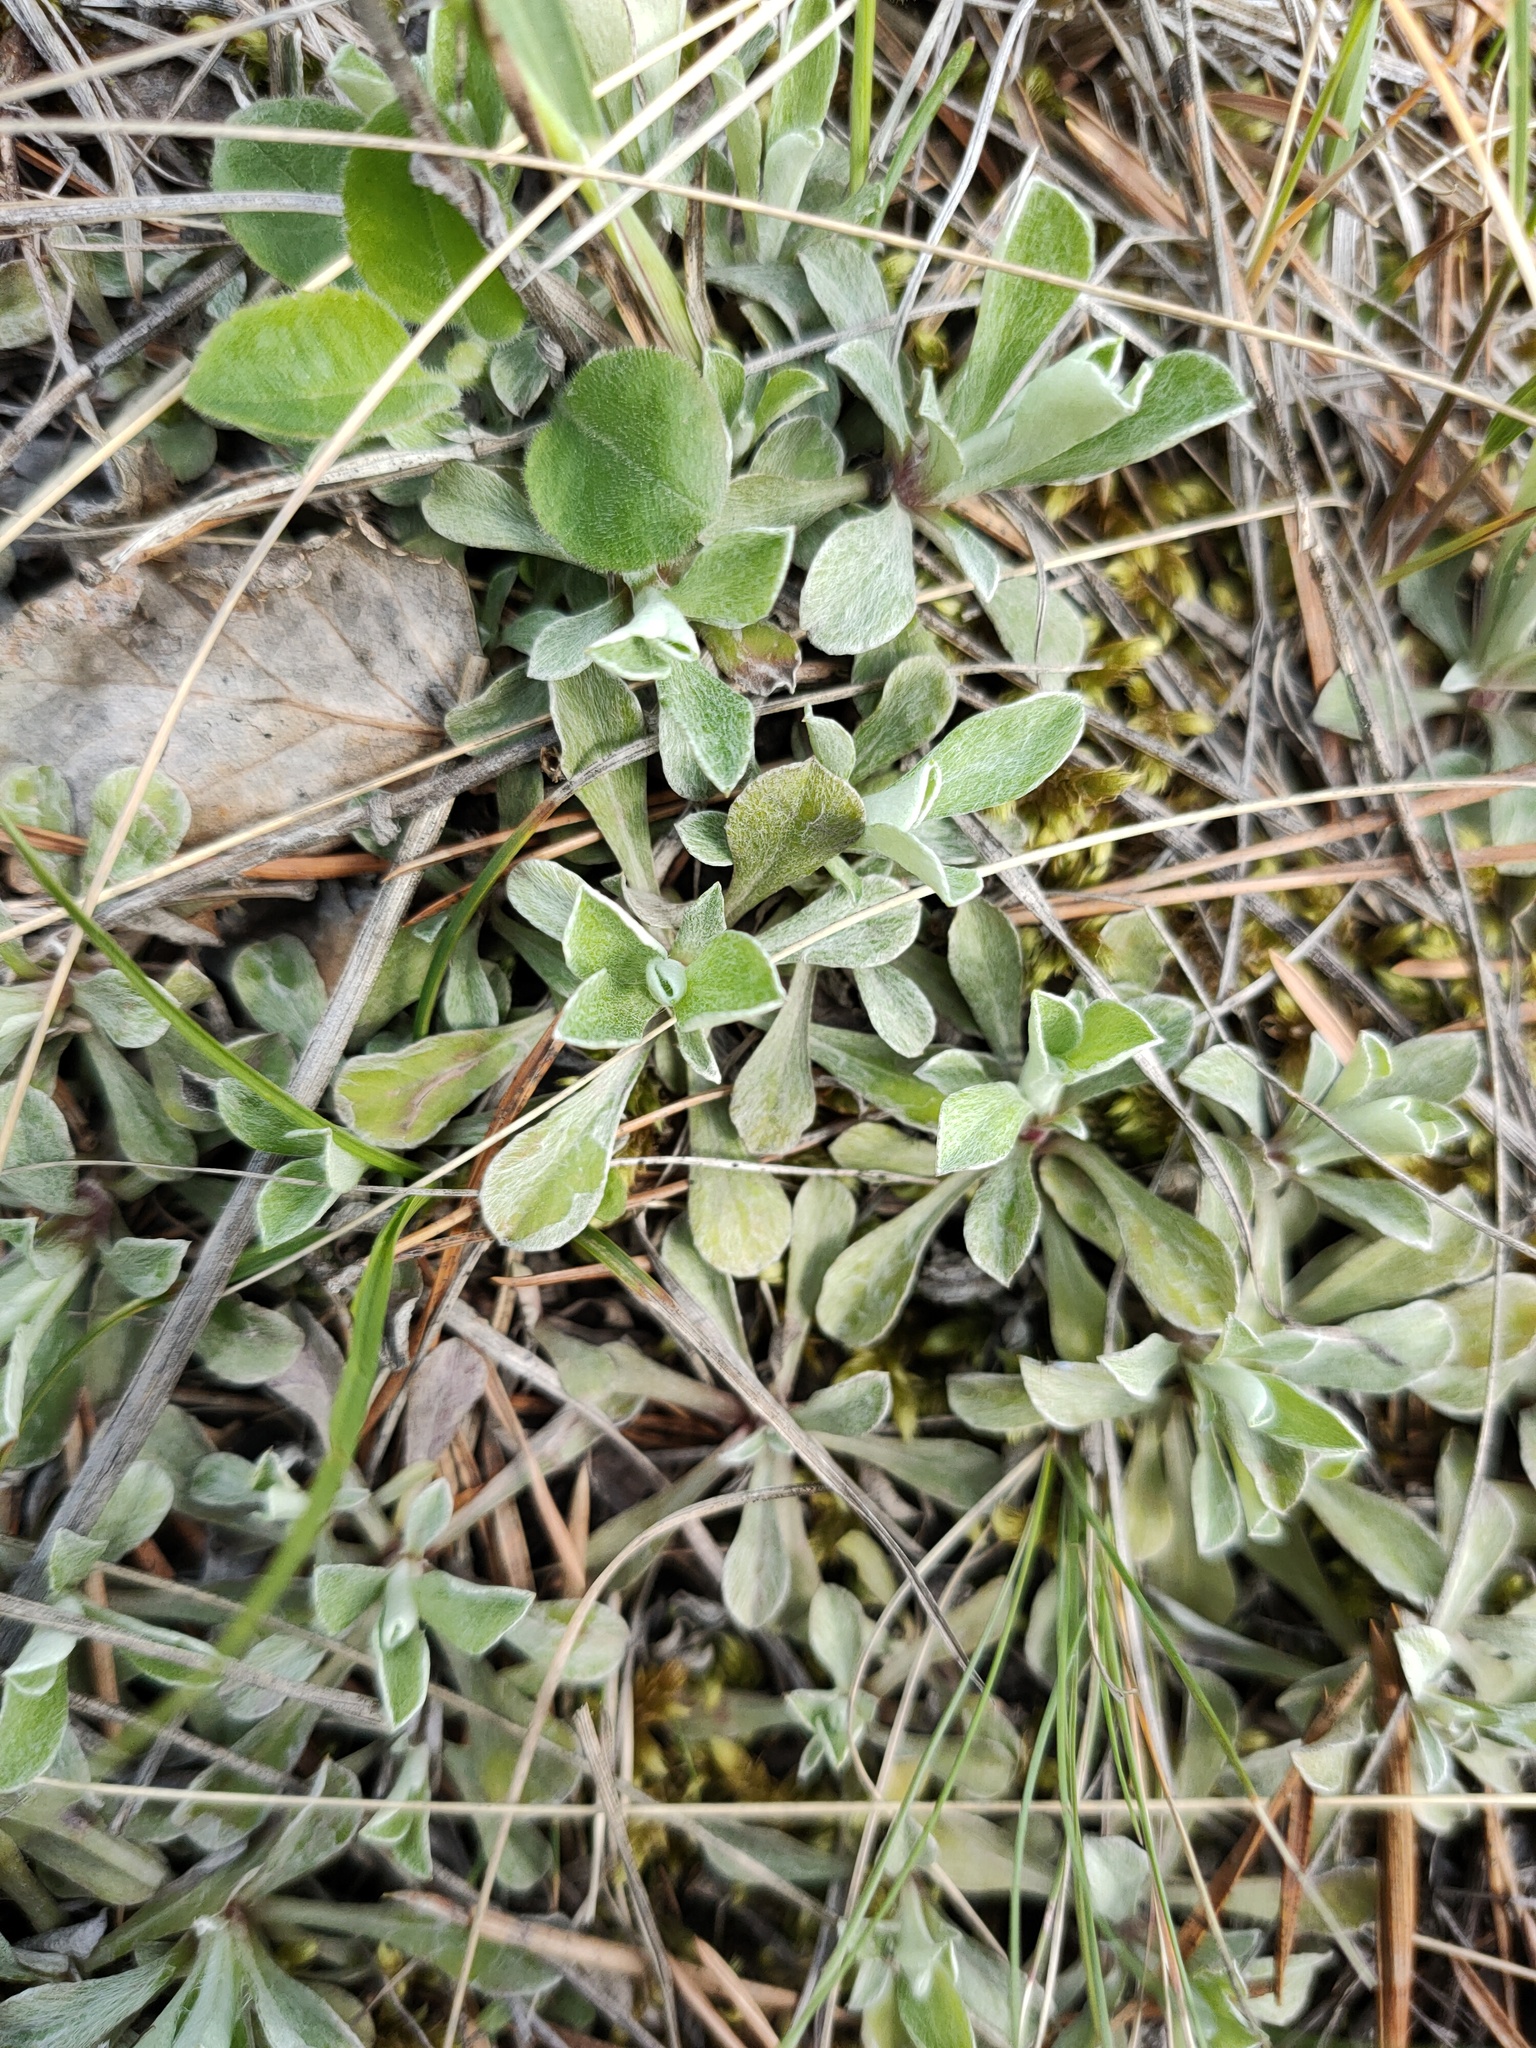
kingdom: Plantae
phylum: Tracheophyta
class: Magnoliopsida
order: Asterales
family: Asteraceae
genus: Antennaria
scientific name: Antennaria dioica
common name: Mountain everlasting
